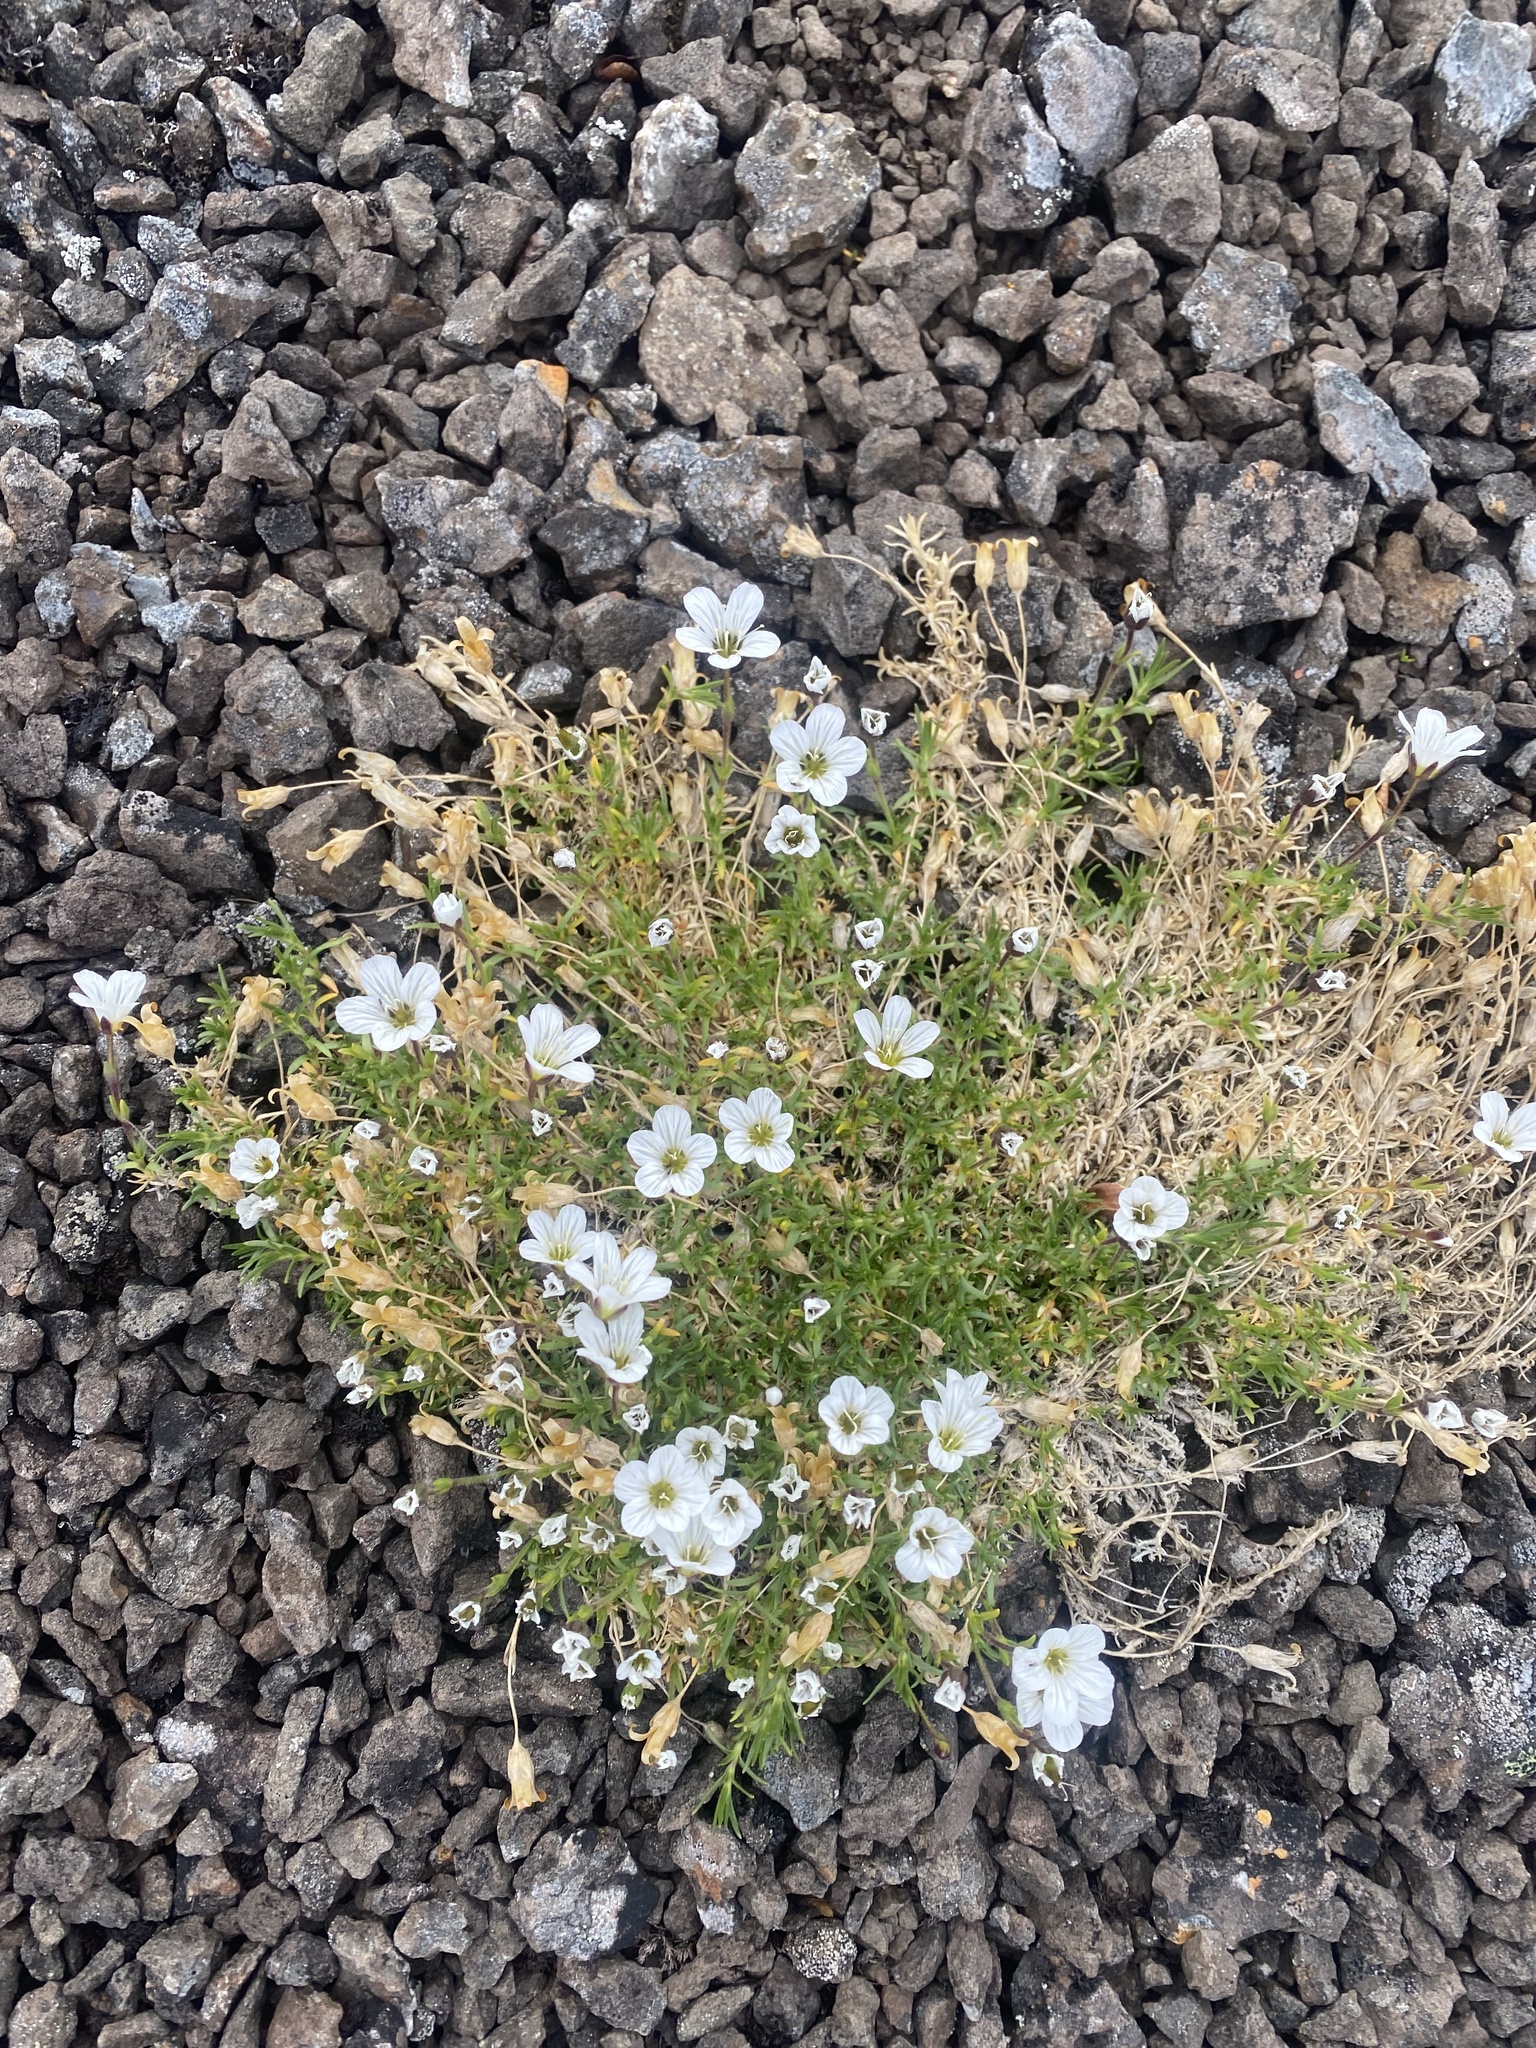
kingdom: Plantae
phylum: Tracheophyta
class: Magnoliopsida
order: Caryophyllales
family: Caryophyllaceae
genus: Cherleria
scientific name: Cherleria arctica
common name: Arctic sandwort
